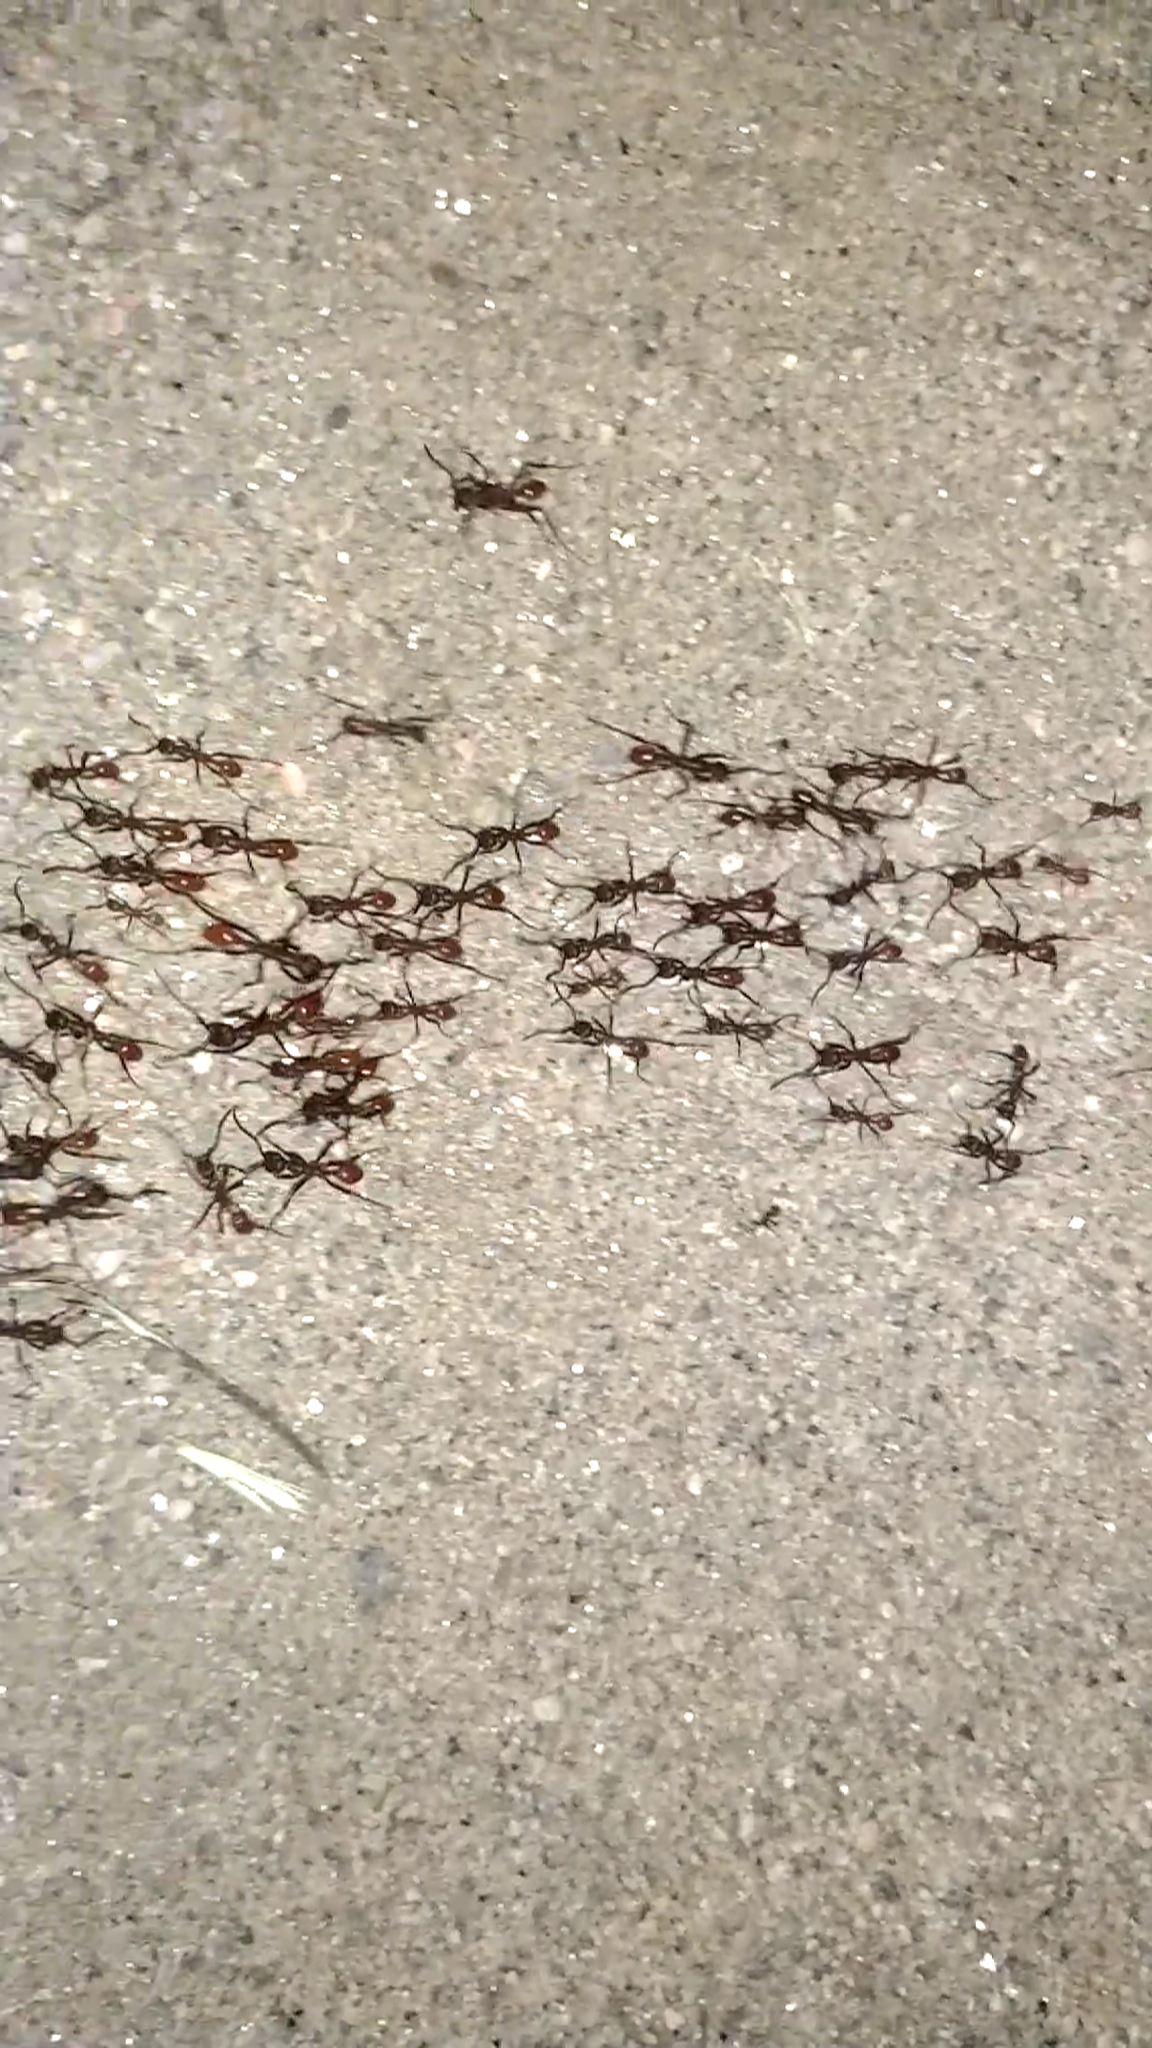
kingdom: Animalia
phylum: Arthropoda
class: Insecta
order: Hymenoptera
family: Formicidae
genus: Eciton
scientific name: Eciton
